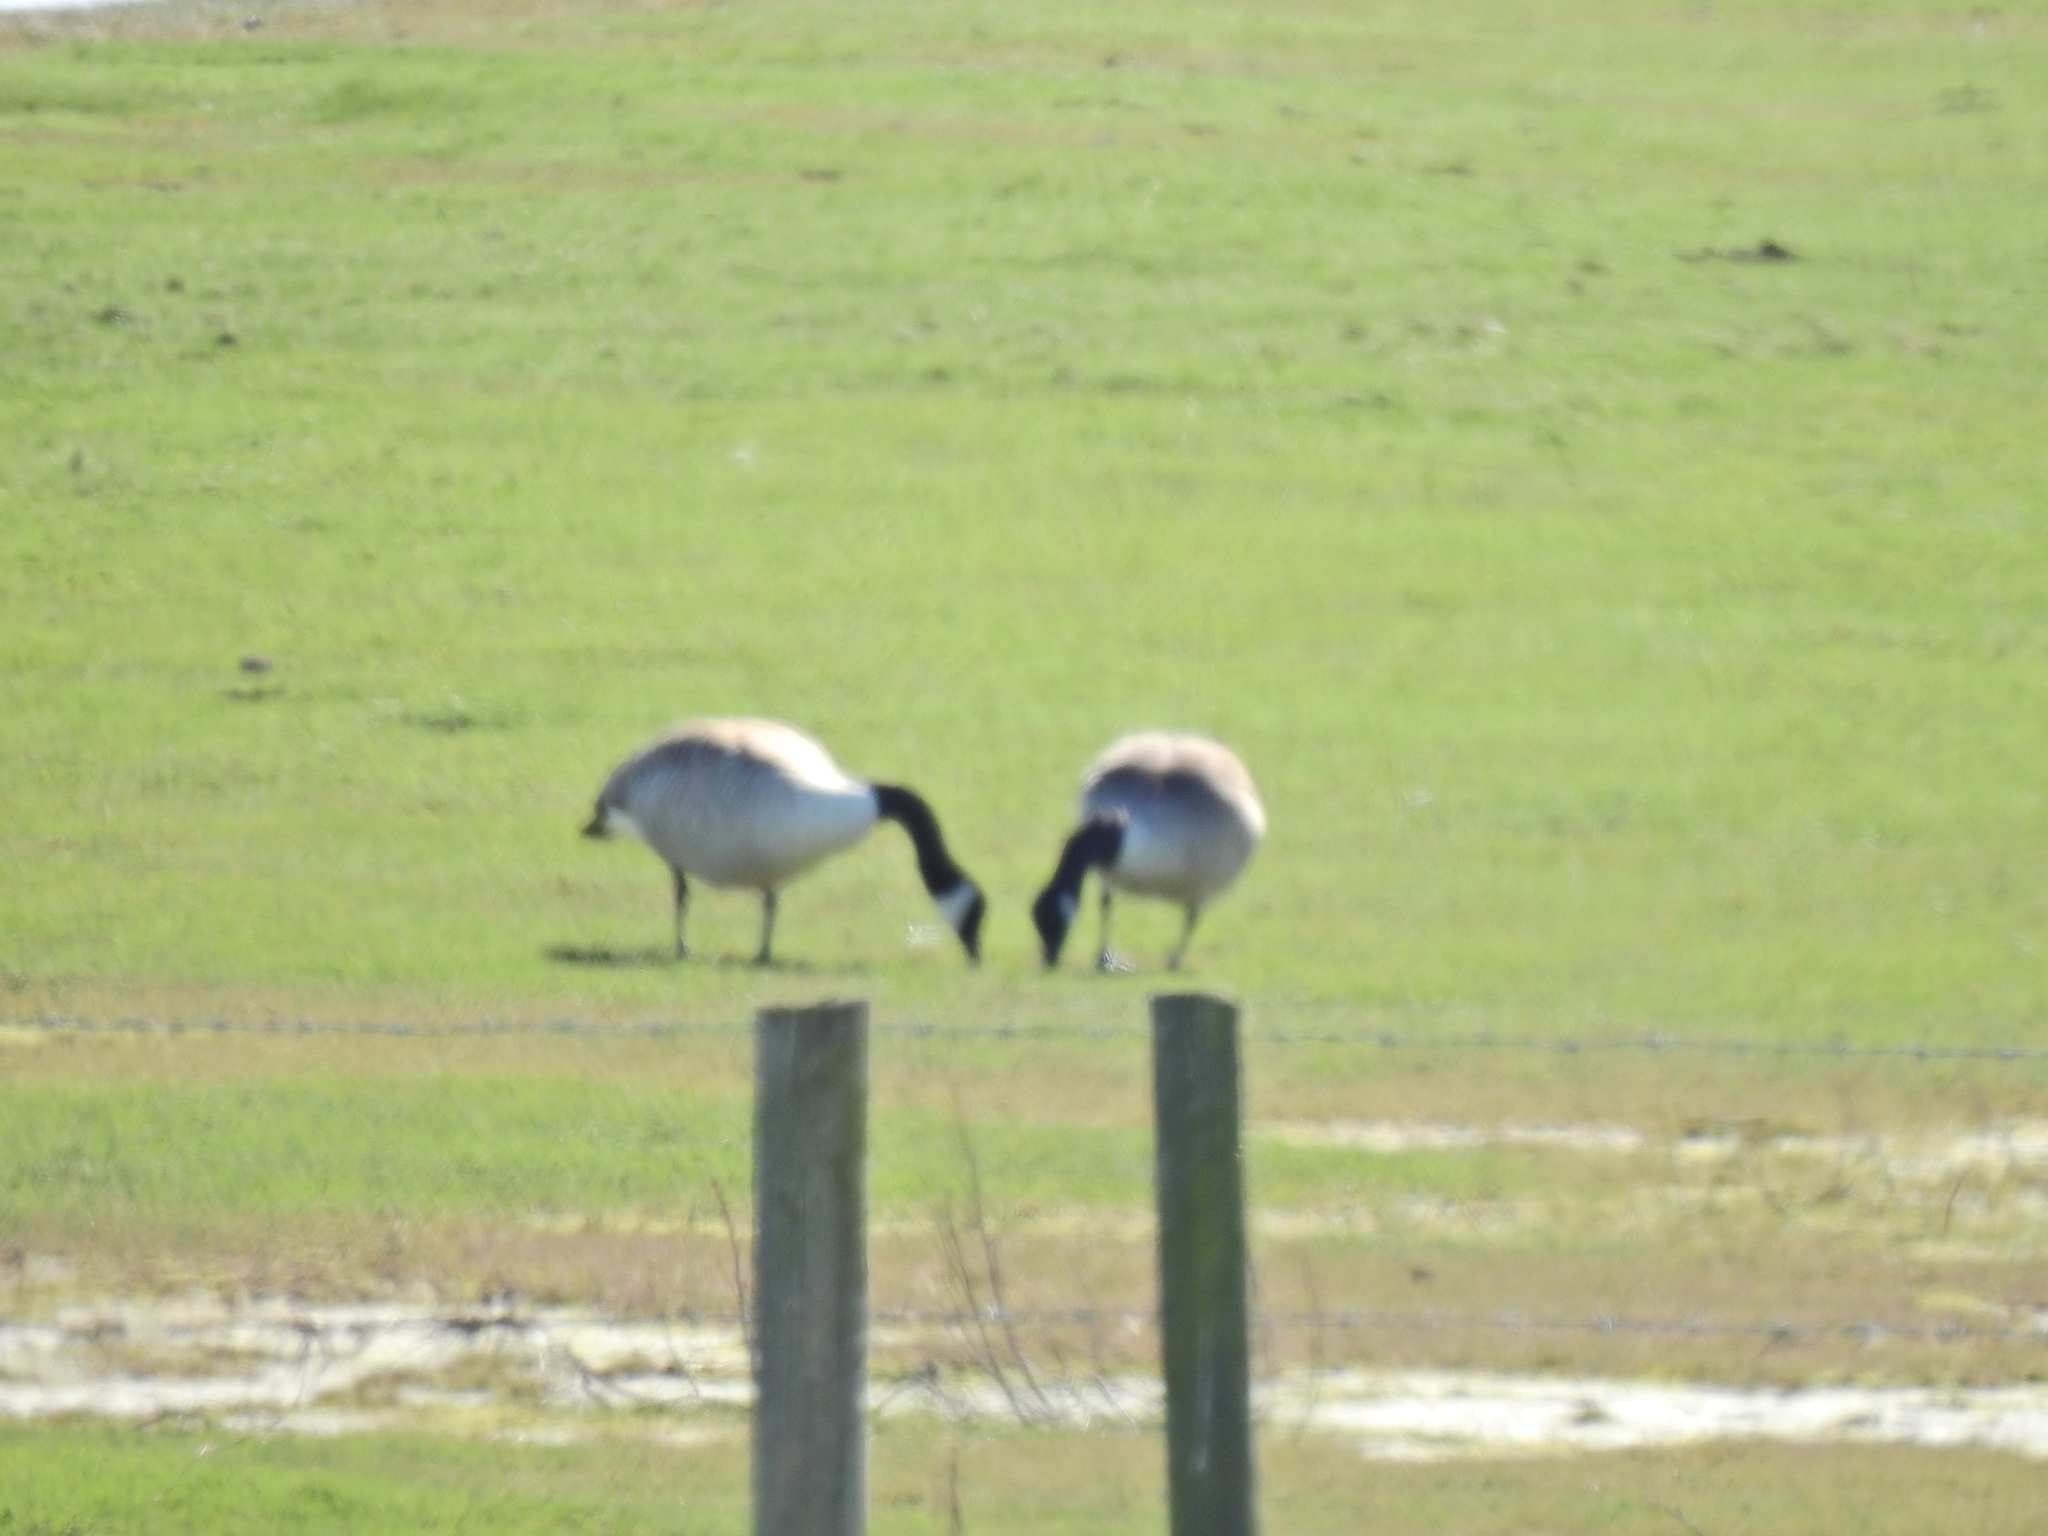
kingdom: Animalia
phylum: Chordata
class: Aves
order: Anseriformes
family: Anatidae
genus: Branta
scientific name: Branta canadensis
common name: Canada goose
